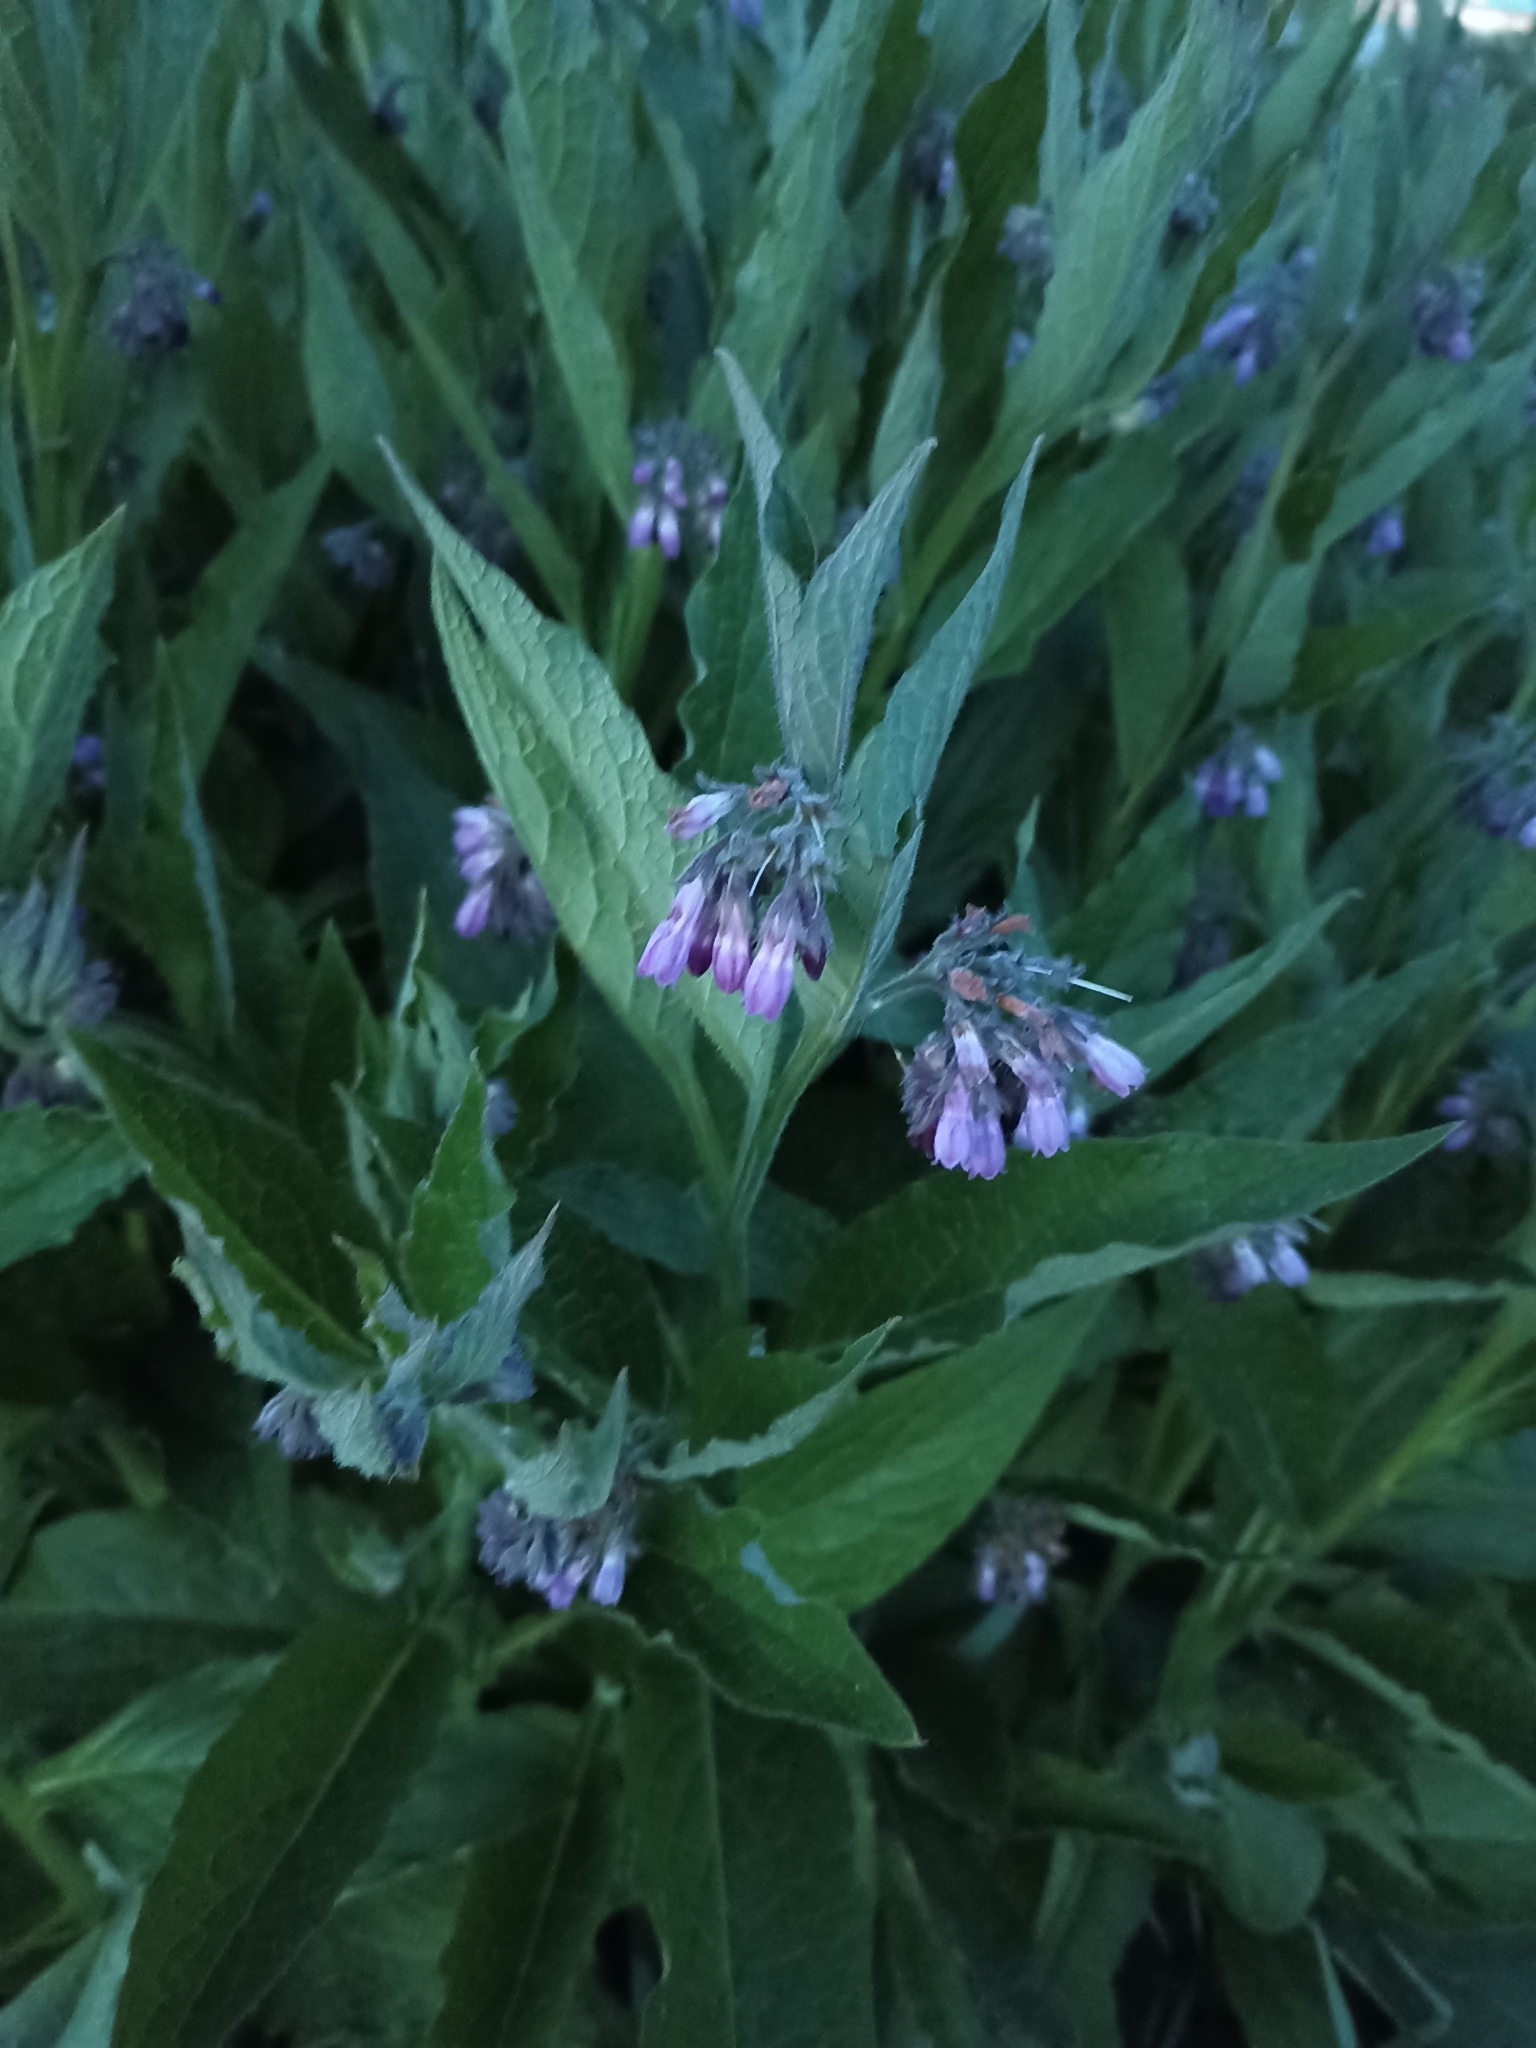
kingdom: Plantae
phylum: Tracheophyta
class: Magnoliopsida
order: Boraginales
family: Boraginaceae
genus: Symphytum
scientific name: Symphytum officinale
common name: Common comfrey
